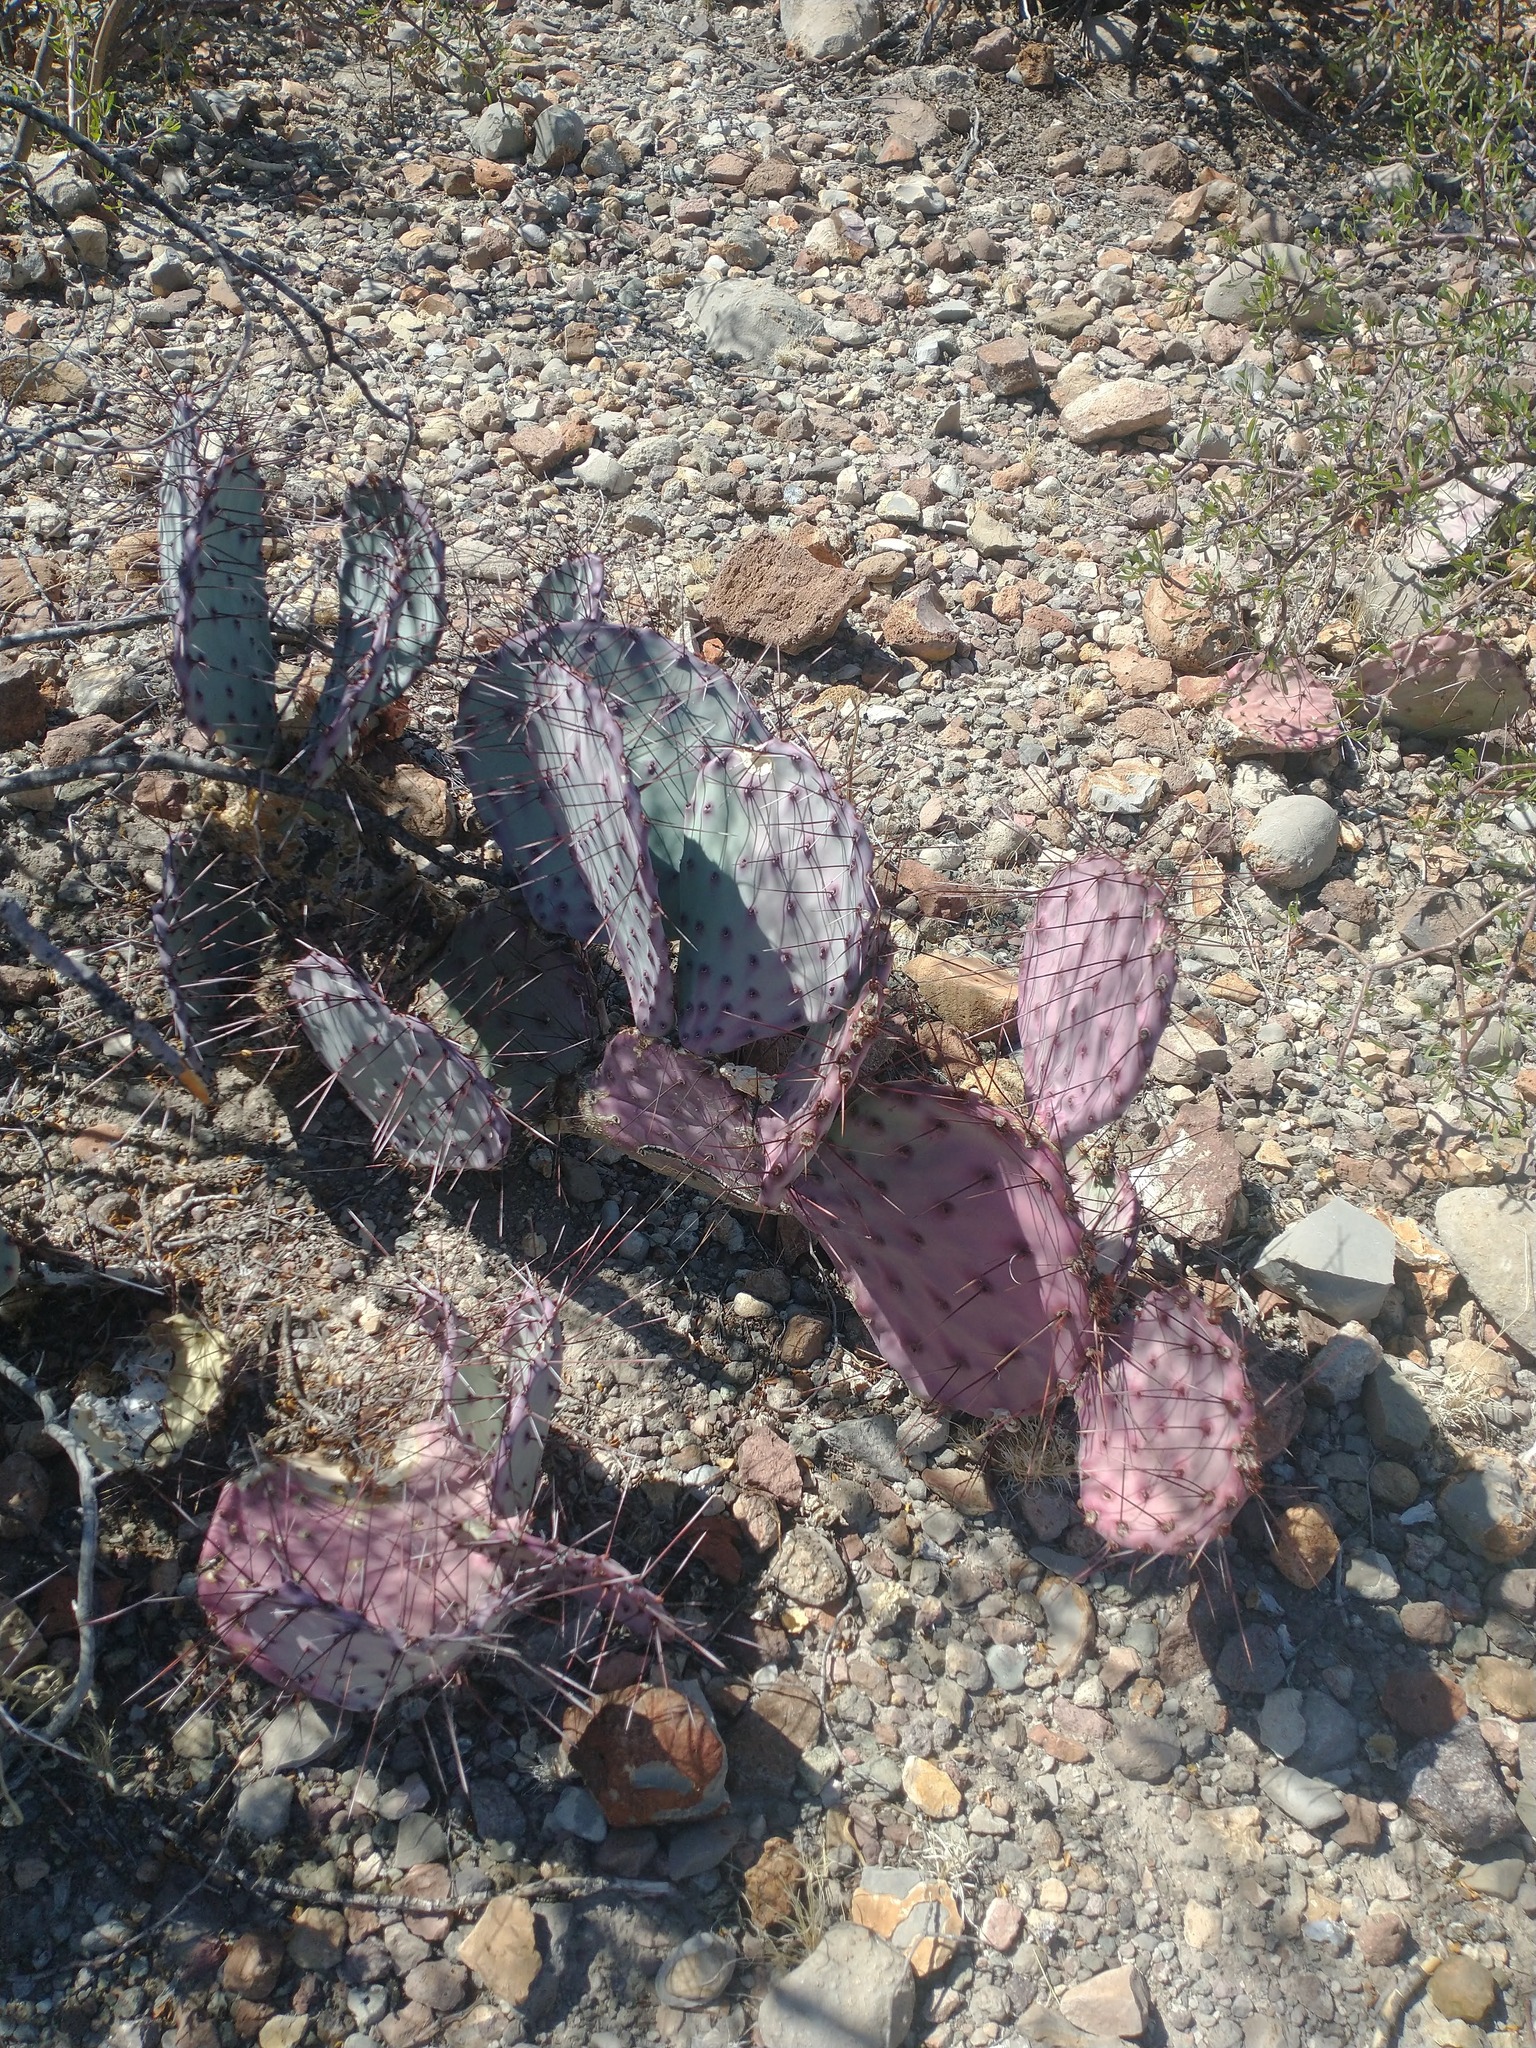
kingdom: Plantae
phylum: Tracheophyta
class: Magnoliopsida
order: Caryophyllales
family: Cactaceae
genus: Opuntia
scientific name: Opuntia phaeacantha
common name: New mexico prickly-pear
